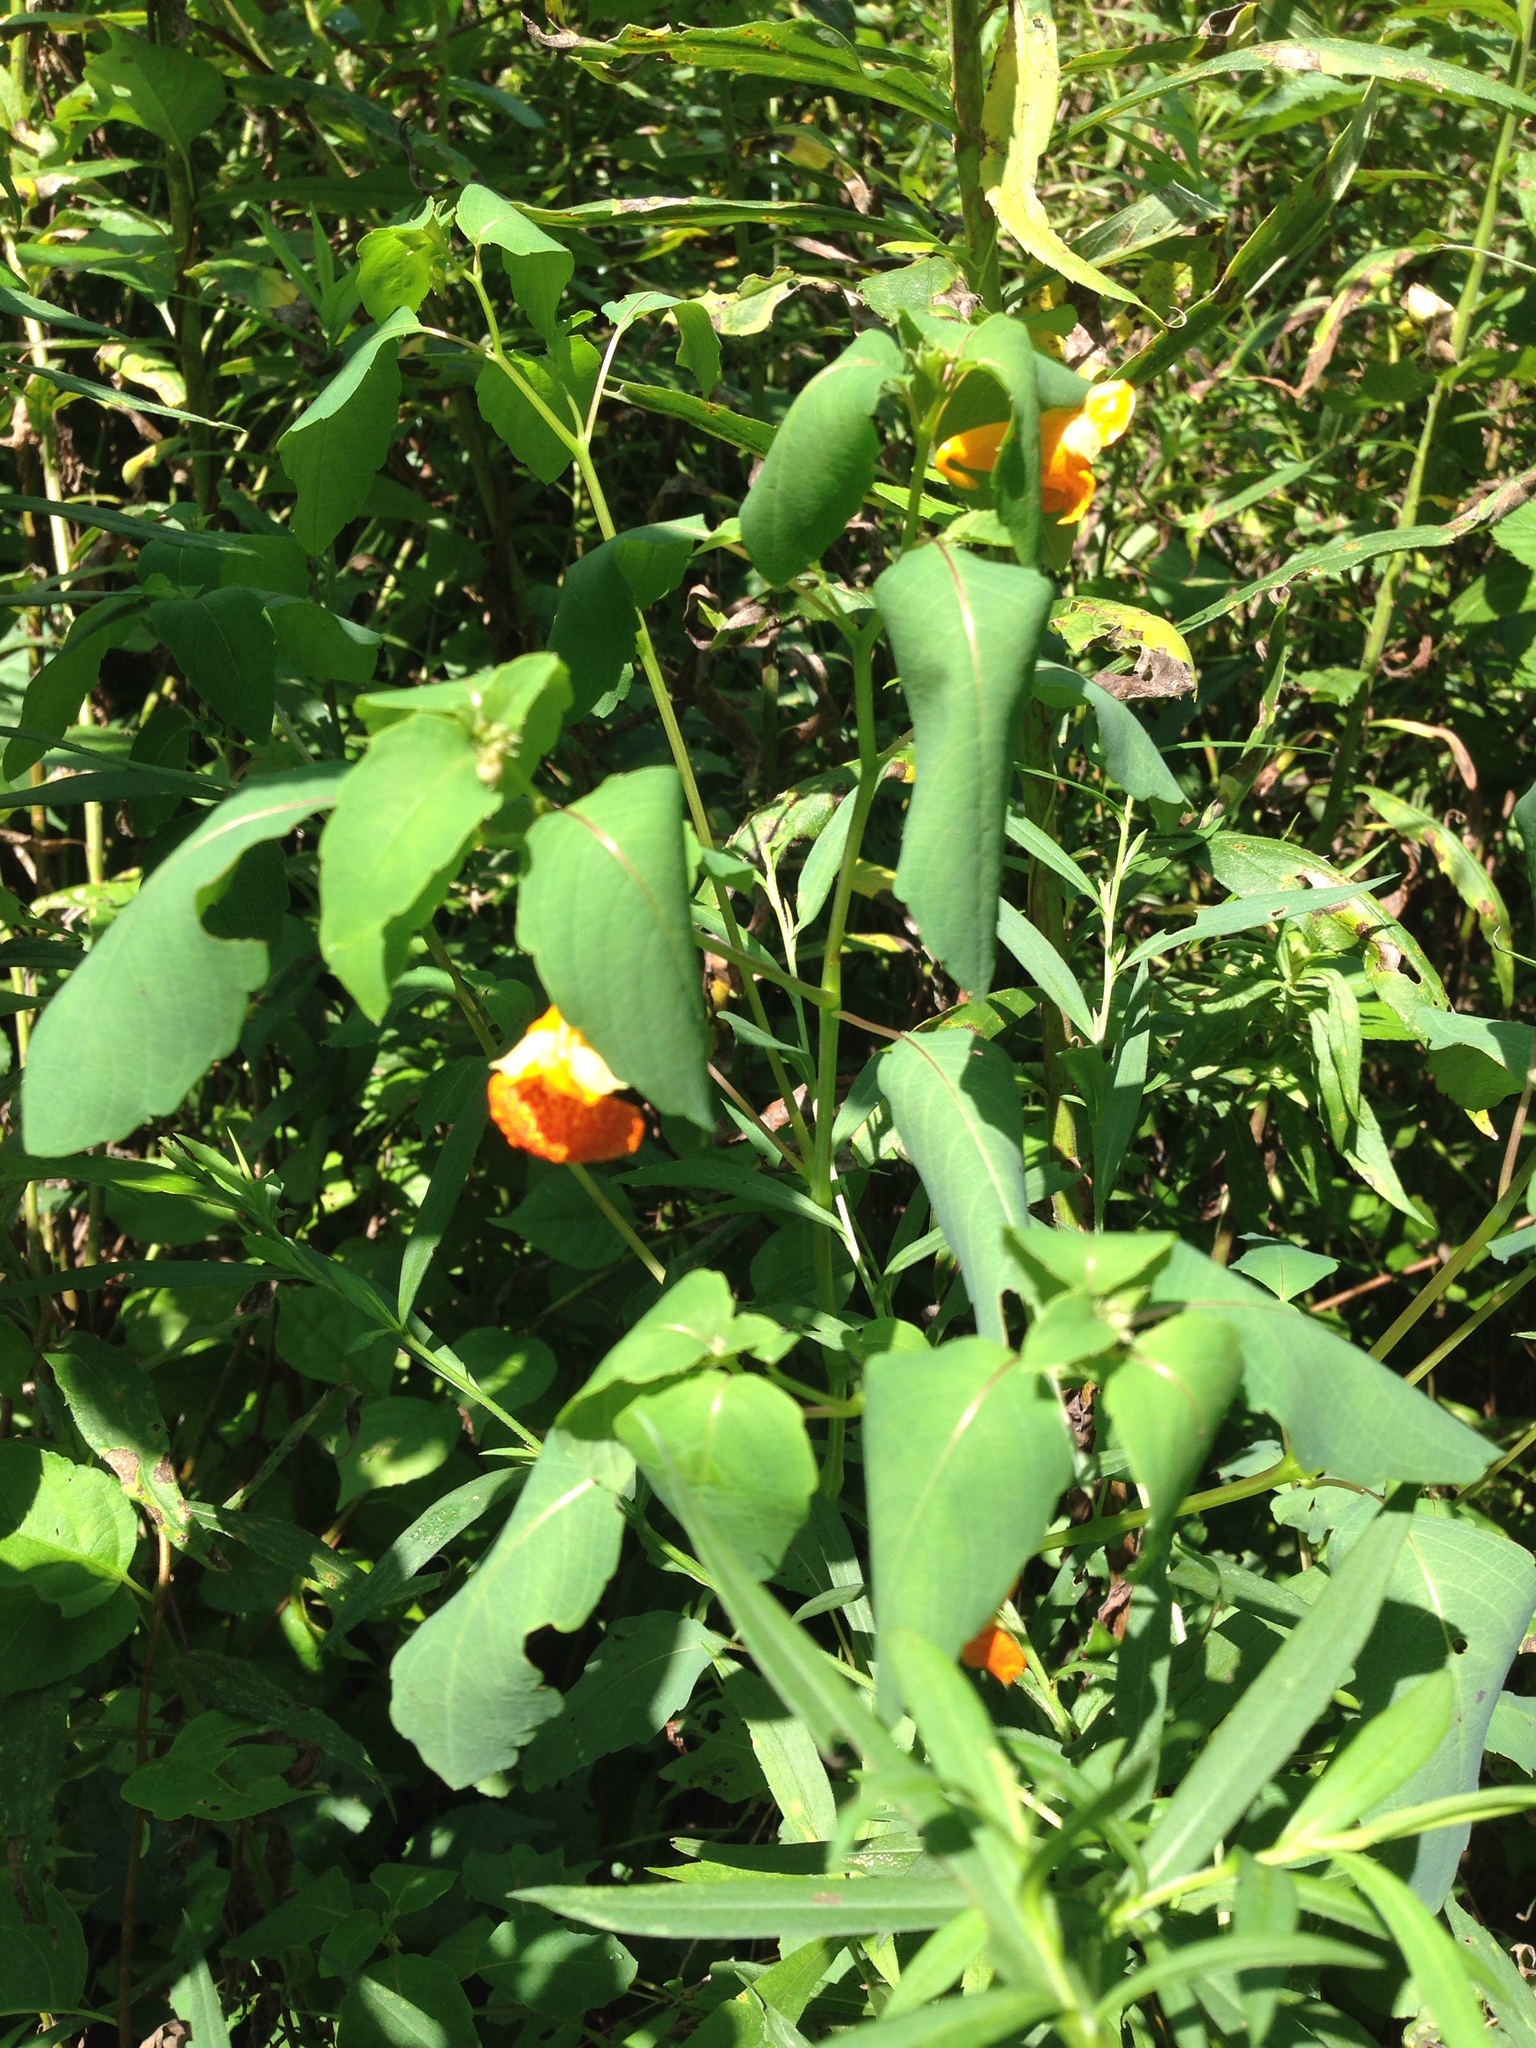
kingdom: Plantae
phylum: Tracheophyta
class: Magnoliopsida
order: Ericales
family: Balsaminaceae
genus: Impatiens
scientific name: Impatiens capensis
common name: Orange balsam
